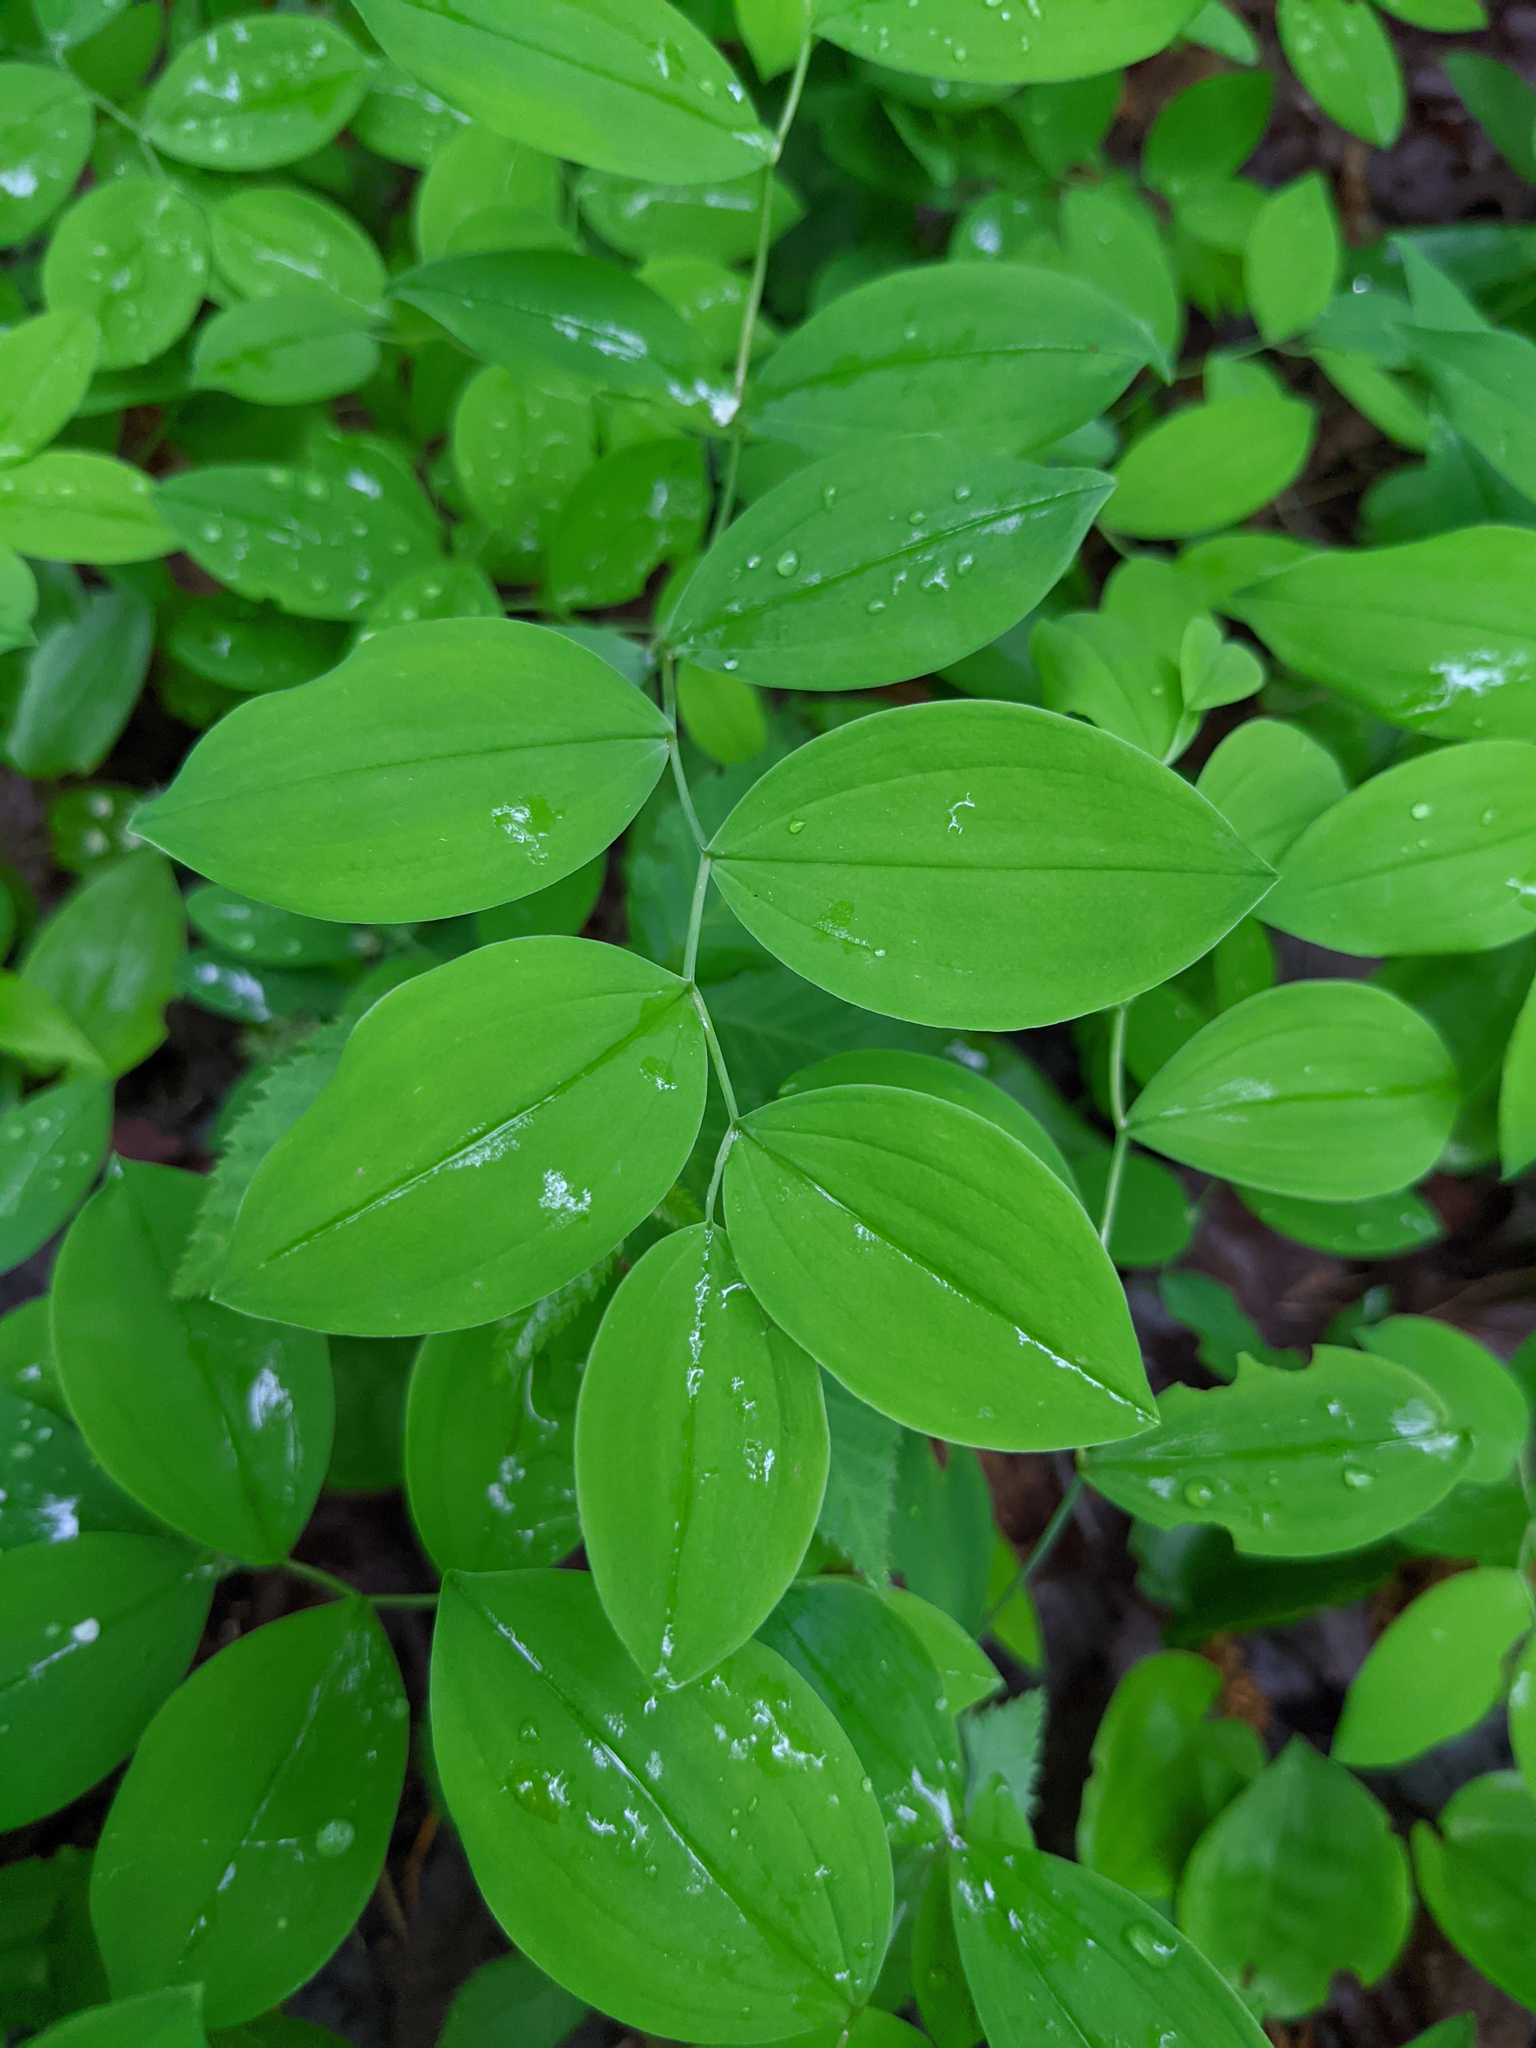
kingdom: Plantae
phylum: Tracheophyta
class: Liliopsida
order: Liliales
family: Colchicaceae
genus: Uvularia
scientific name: Uvularia sessilifolia
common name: Straw-lily
